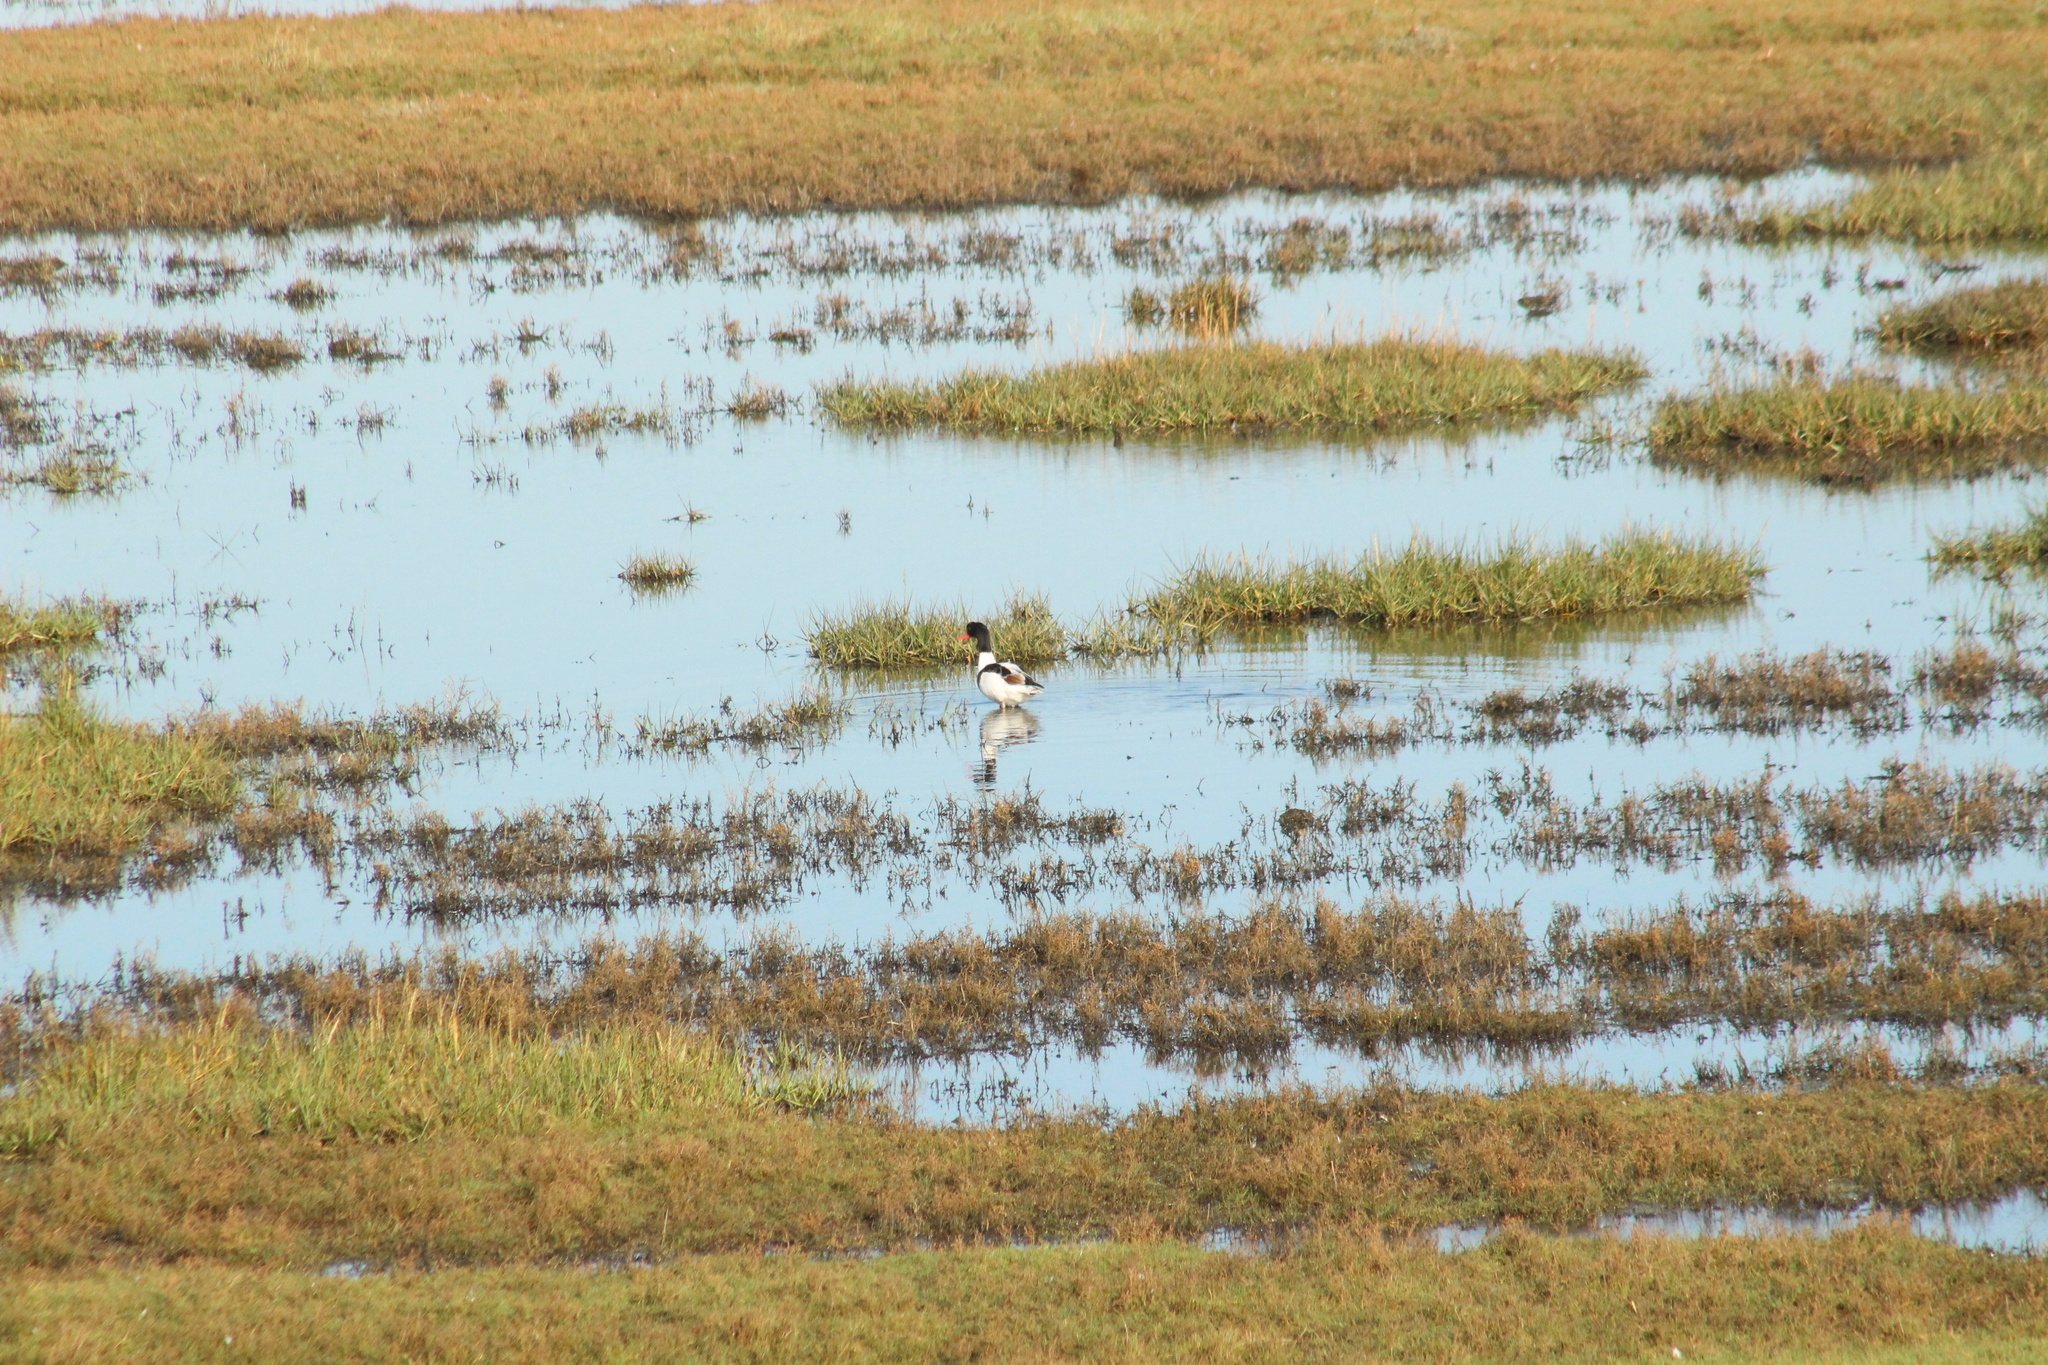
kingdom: Animalia
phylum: Chordata
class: Aves
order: Anseriformes
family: Anatidae
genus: Tadorna
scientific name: Tadorna tadorna
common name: Common shelduck
